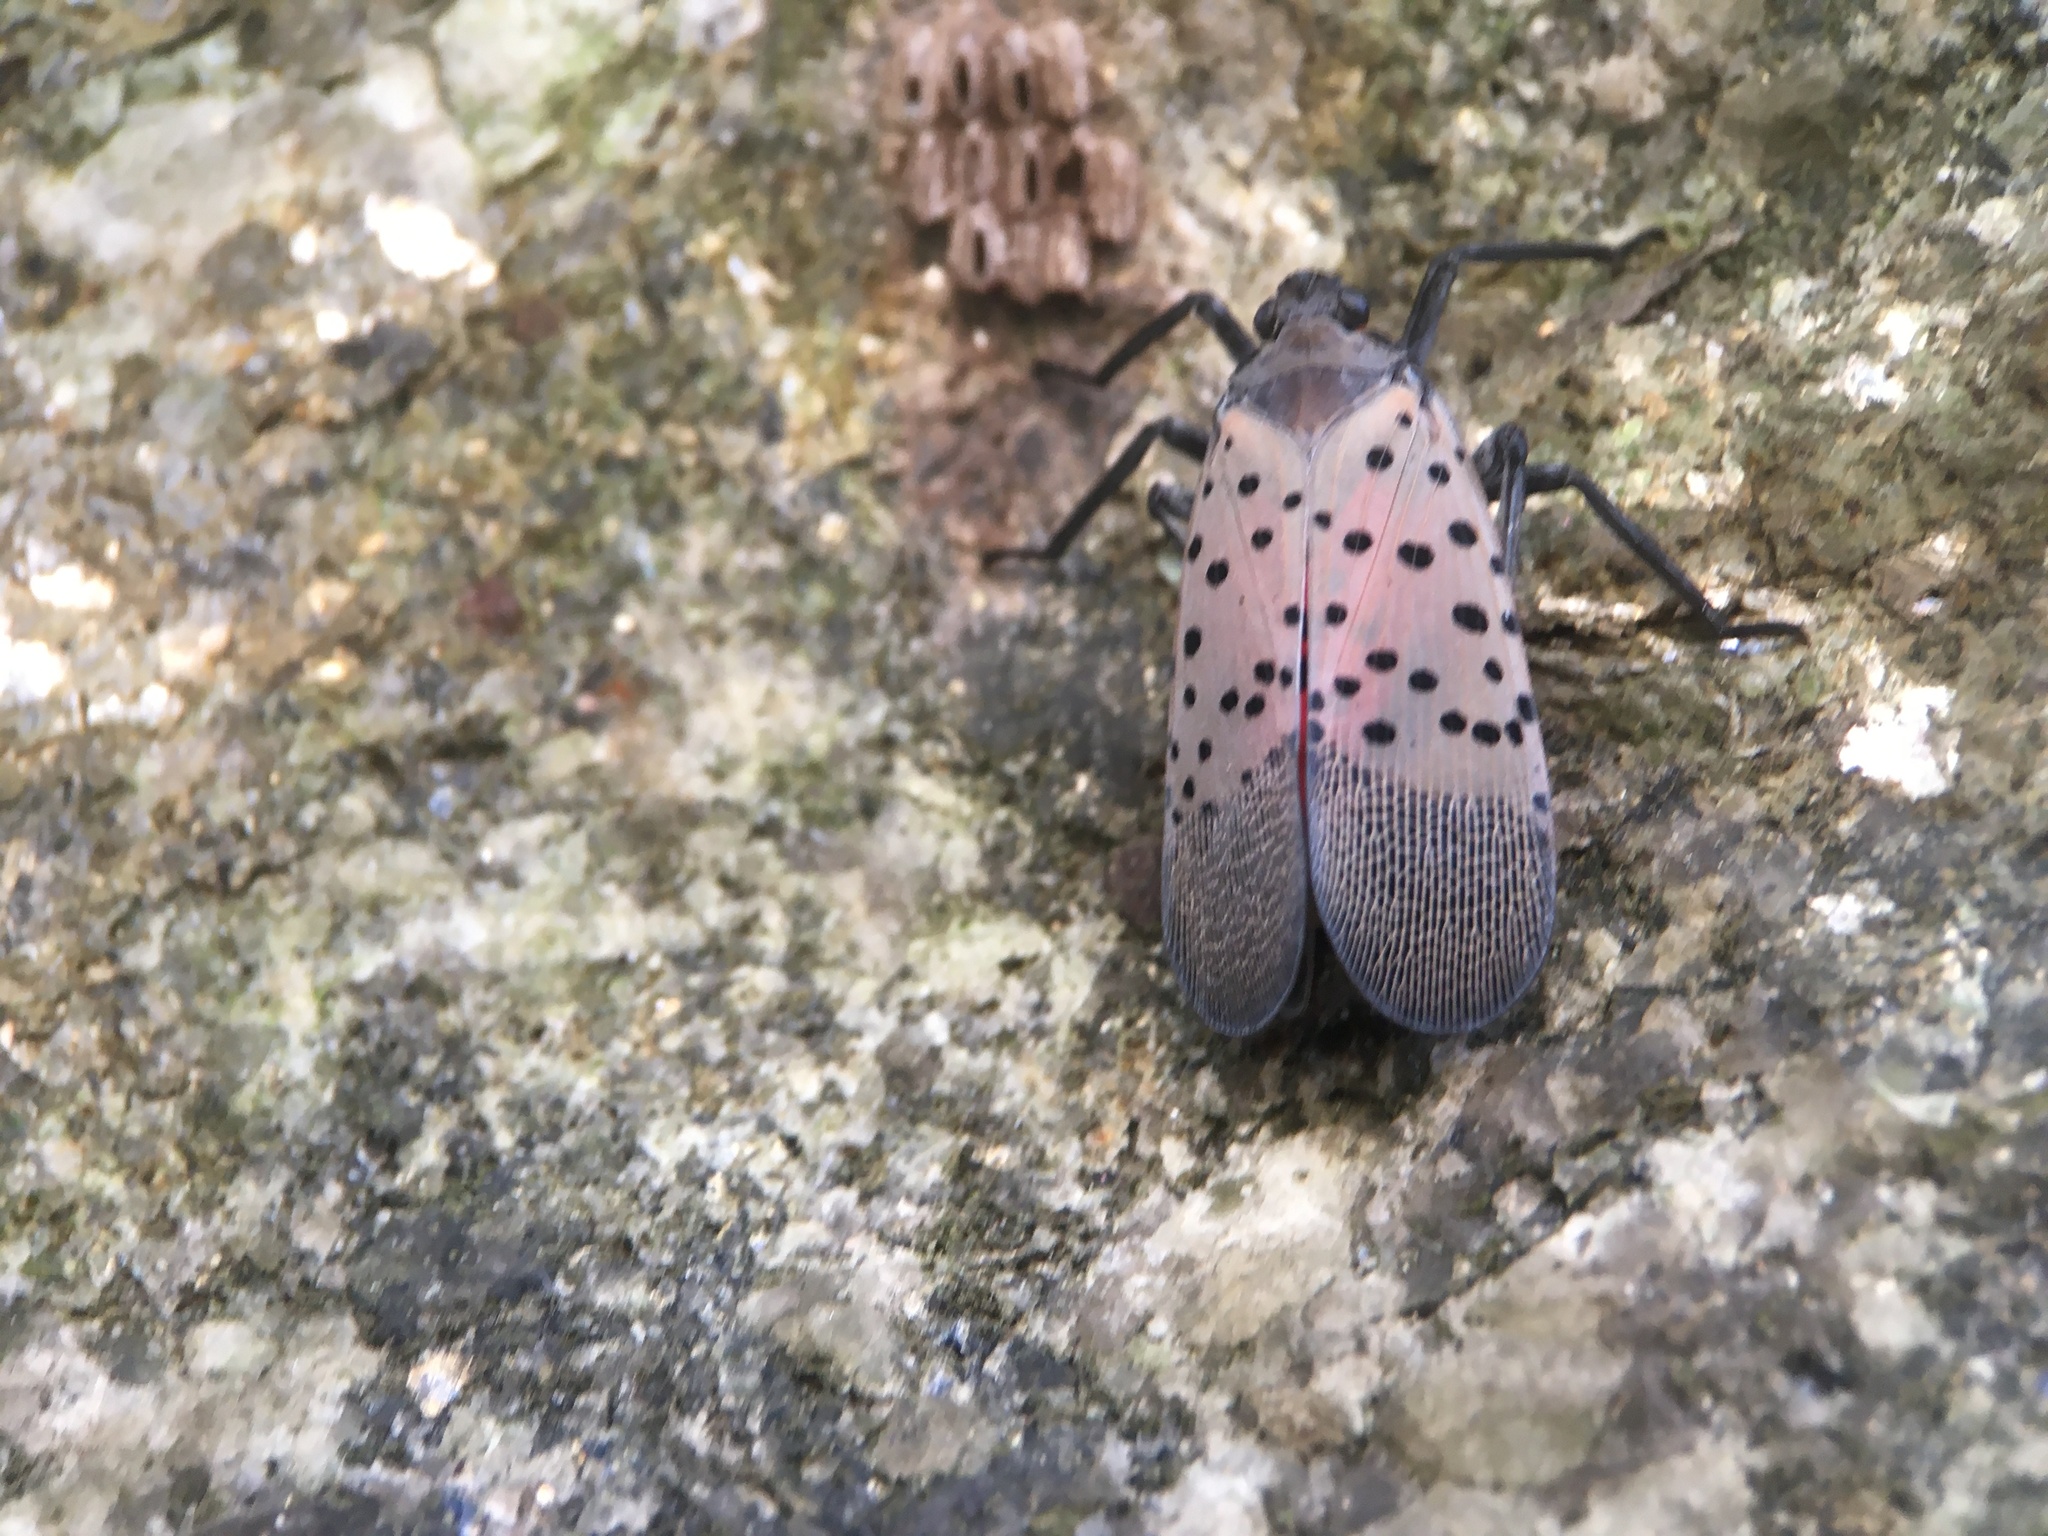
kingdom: Animalia
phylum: Arthropoda
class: Insecta
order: Hemiptera
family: Fulgoridae
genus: Lycorma
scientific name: Lycorma delicatula
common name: Spotted lanternfly
